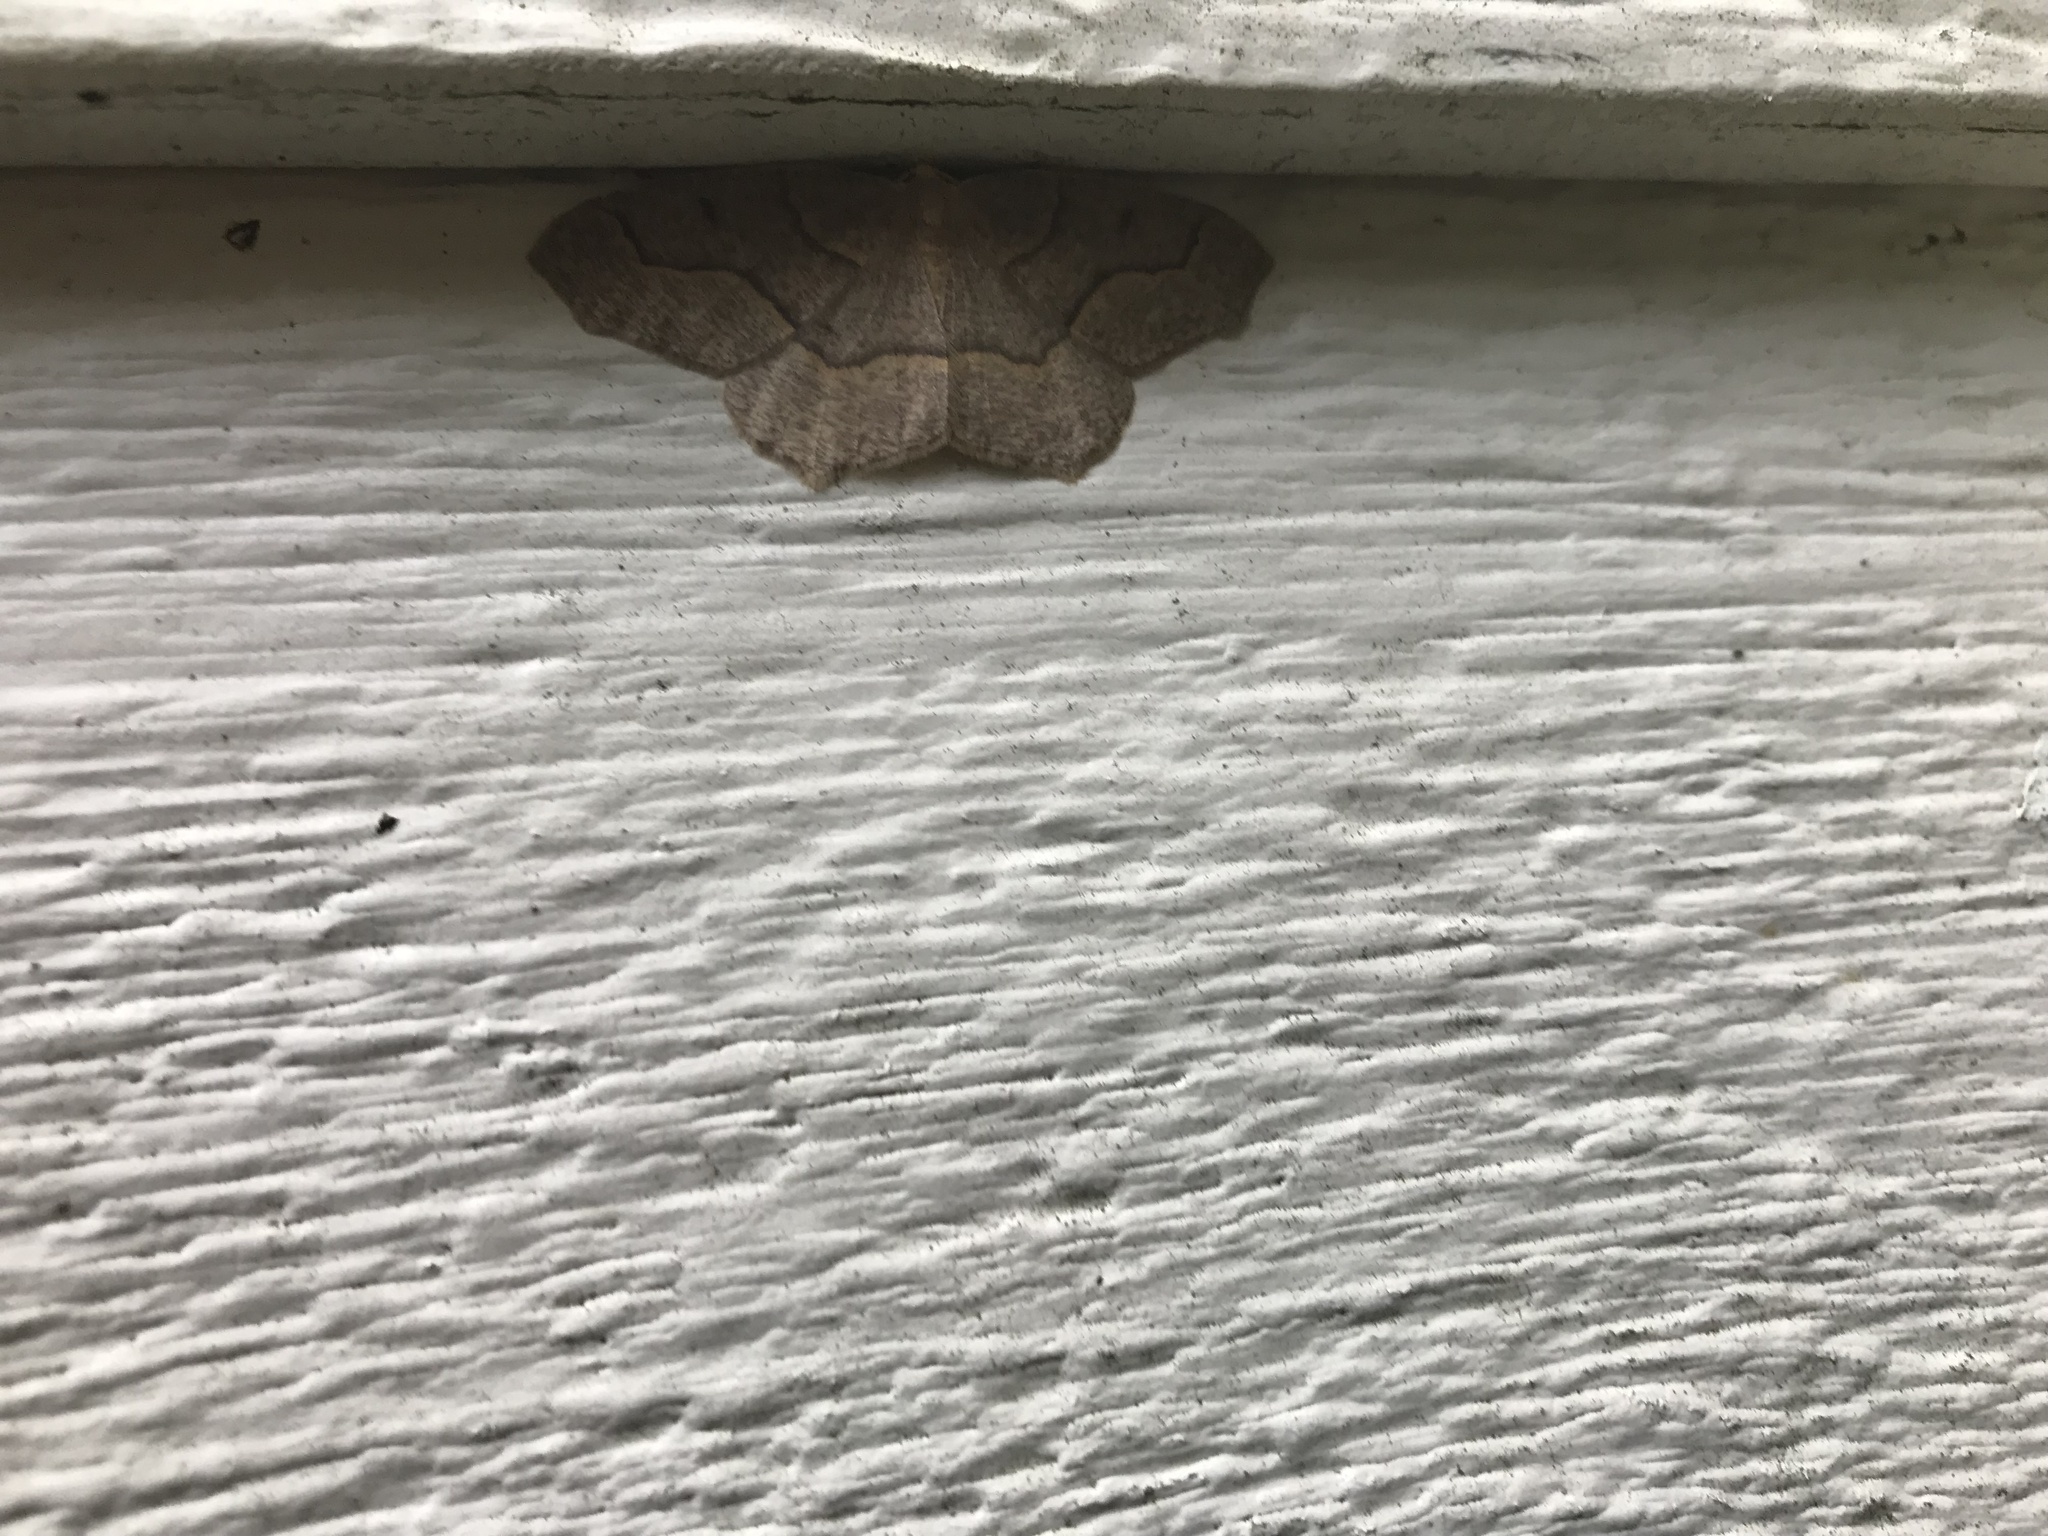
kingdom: Animalia
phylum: Arthropoda
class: Insecta
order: Lepidoptera
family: Geometridae
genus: Lambdina
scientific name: Lambdina fiscellaria
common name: Hemlock looper
